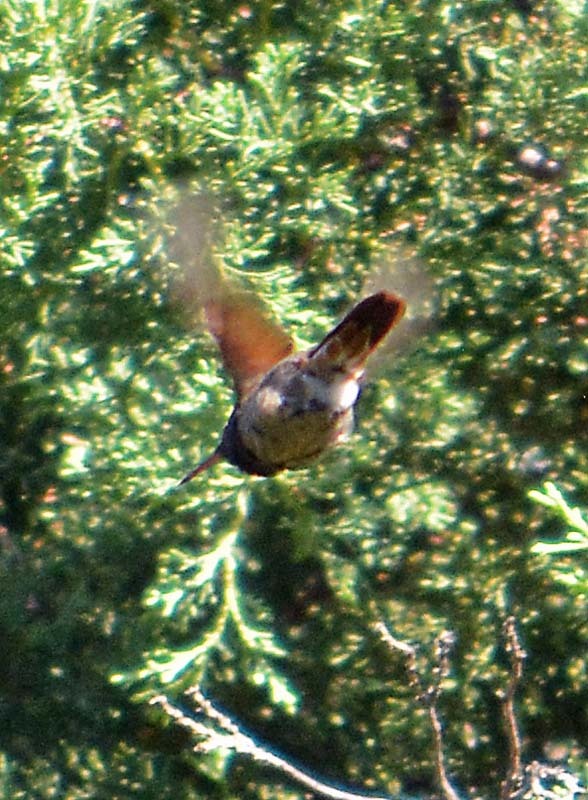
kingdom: Animalia
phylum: Chordata
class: Aves
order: Apodiformes
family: Trochilidae
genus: Saucerottia
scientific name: Saucerottia beryllina
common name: Berylline hummingbird
